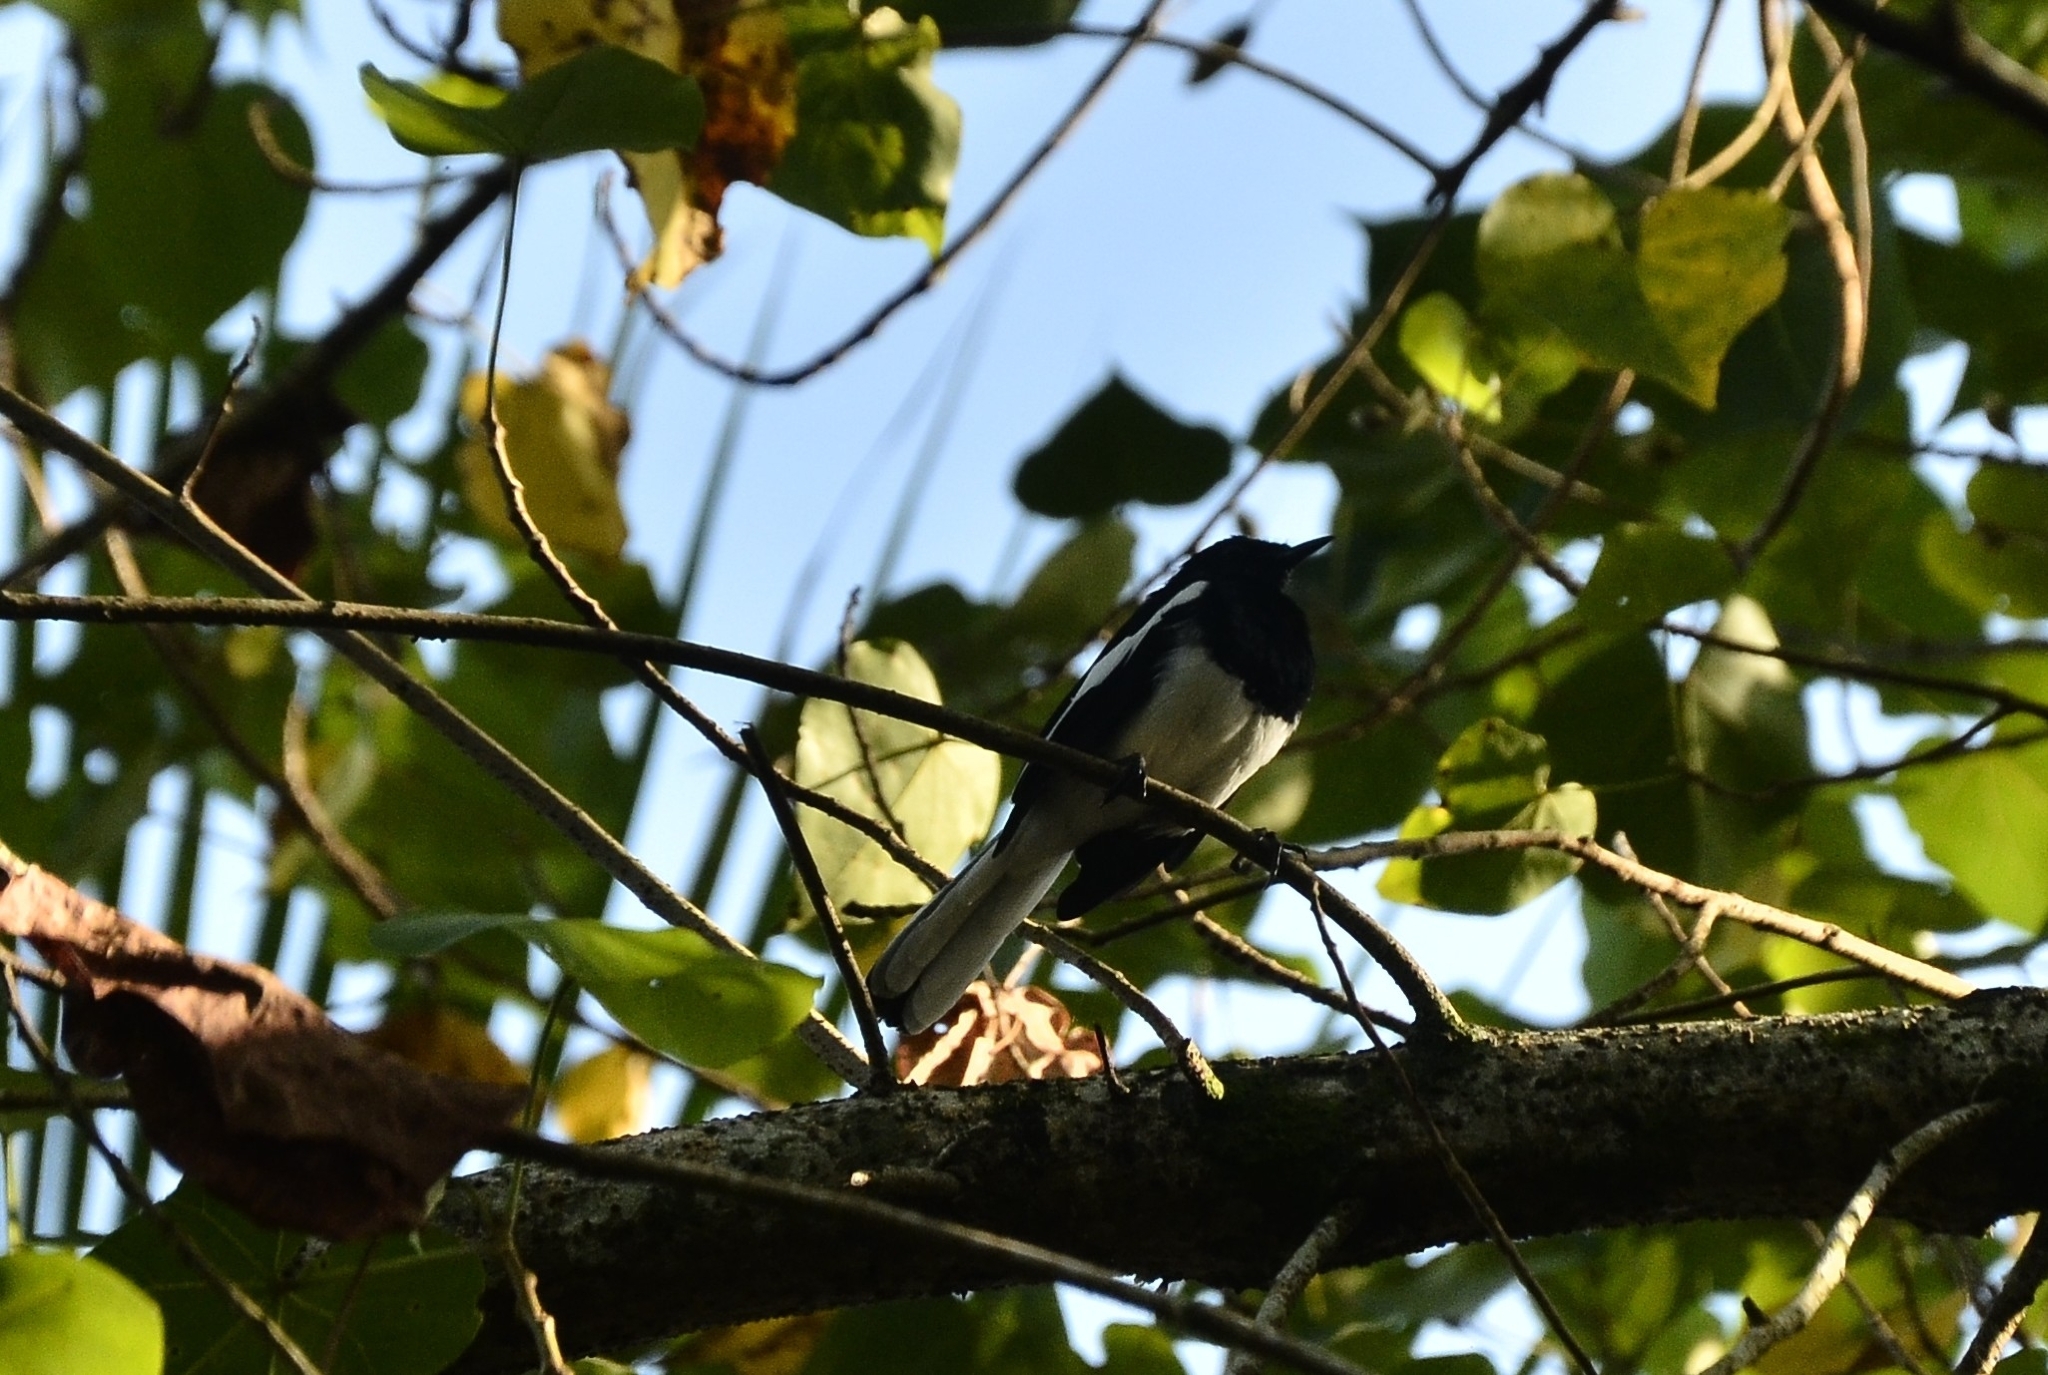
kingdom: Animalia
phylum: Chordata
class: Aves
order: Passeriformes
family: Muscicapidae
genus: Copsychus
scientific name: Copsychus saularis
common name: Oriental magpie-robin
